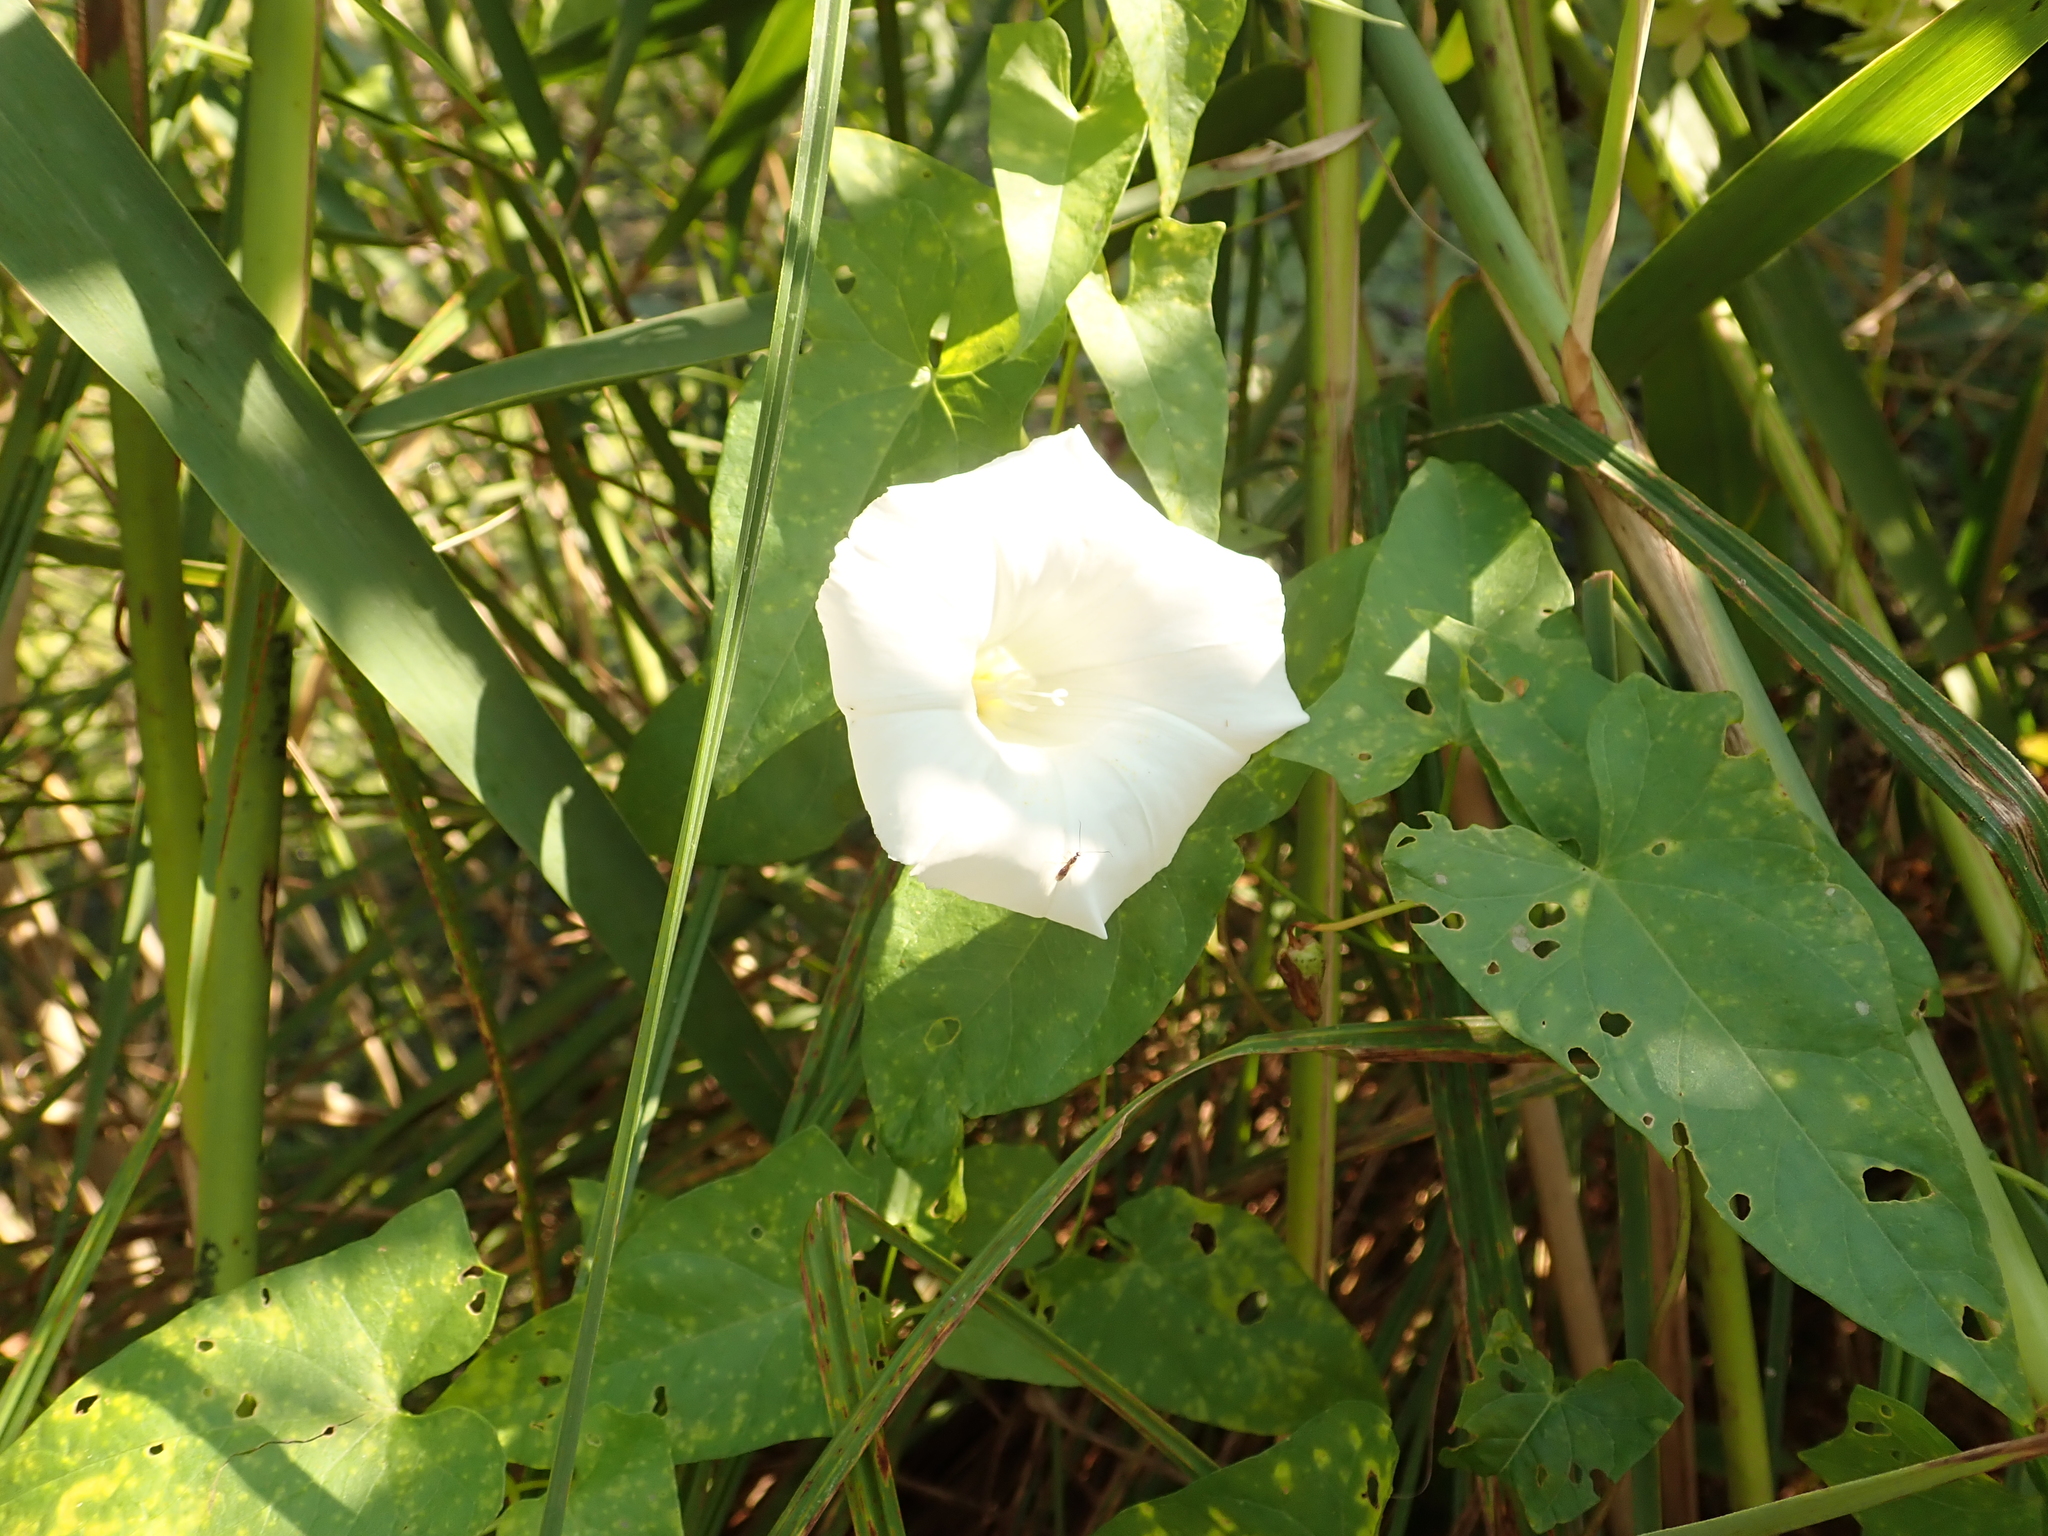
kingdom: Plantae
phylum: Tracheophyta
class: Magnoliopsida
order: Solanales
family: Convolvulaceae
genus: Calystegia
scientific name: Calystegia sepium
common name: Hedge bindweed
